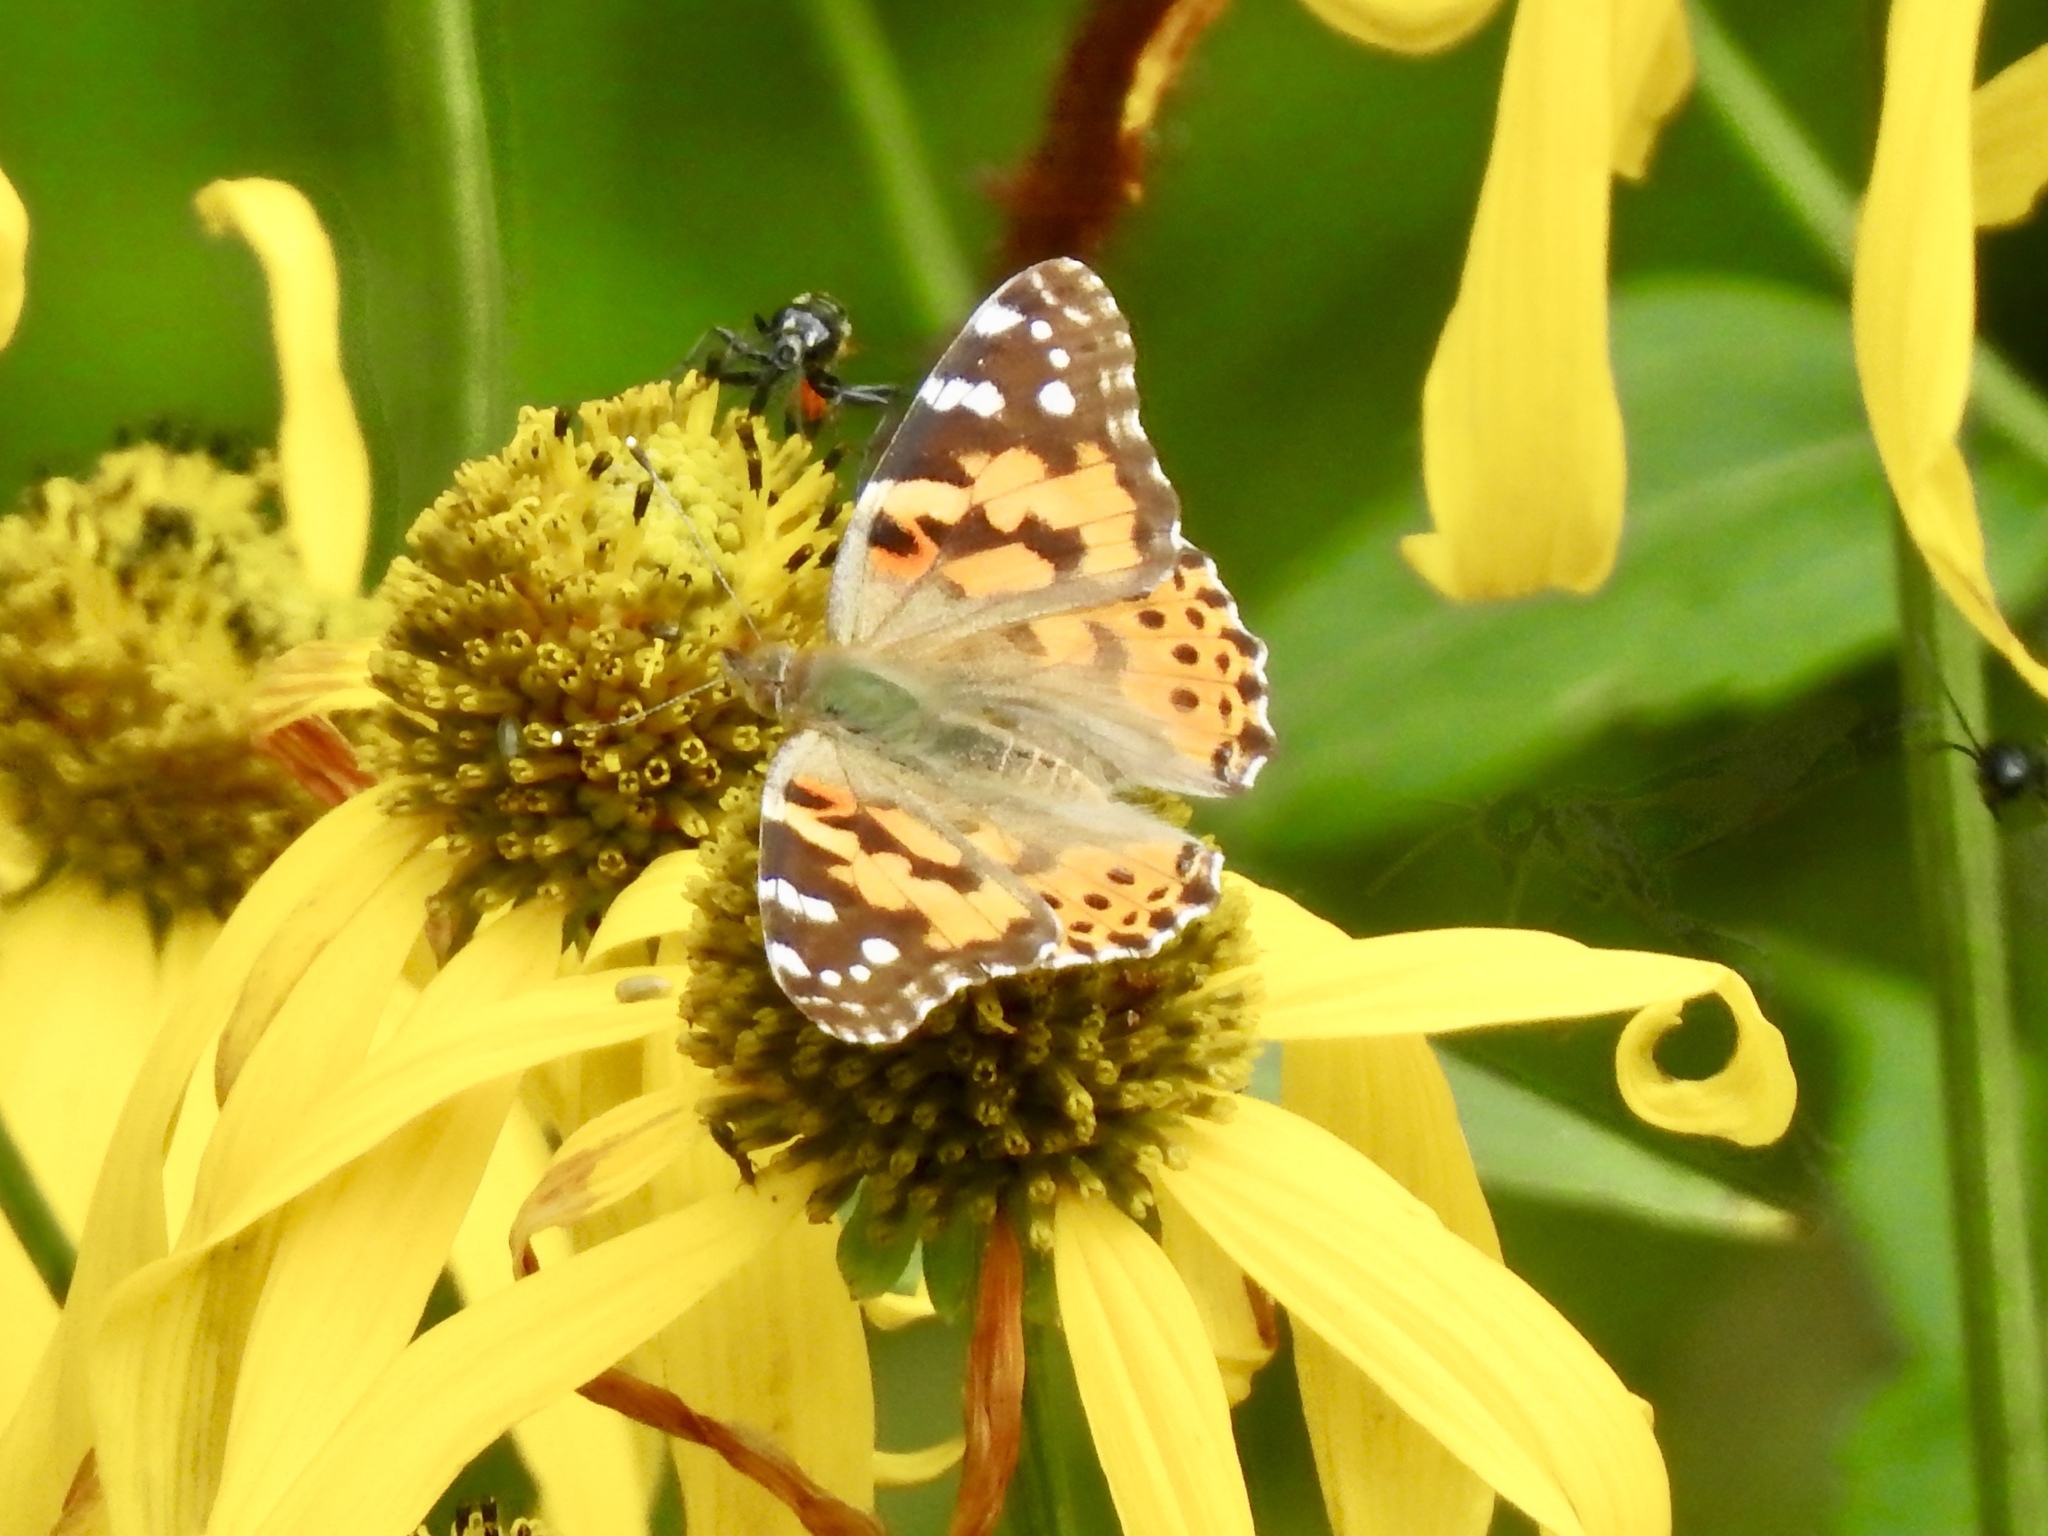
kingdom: Animalia
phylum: Arthropoda
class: Insecta
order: Lepidoptera
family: Nymphalidae
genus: Vanessa
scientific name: Vanessa cardui
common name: Painted lady
